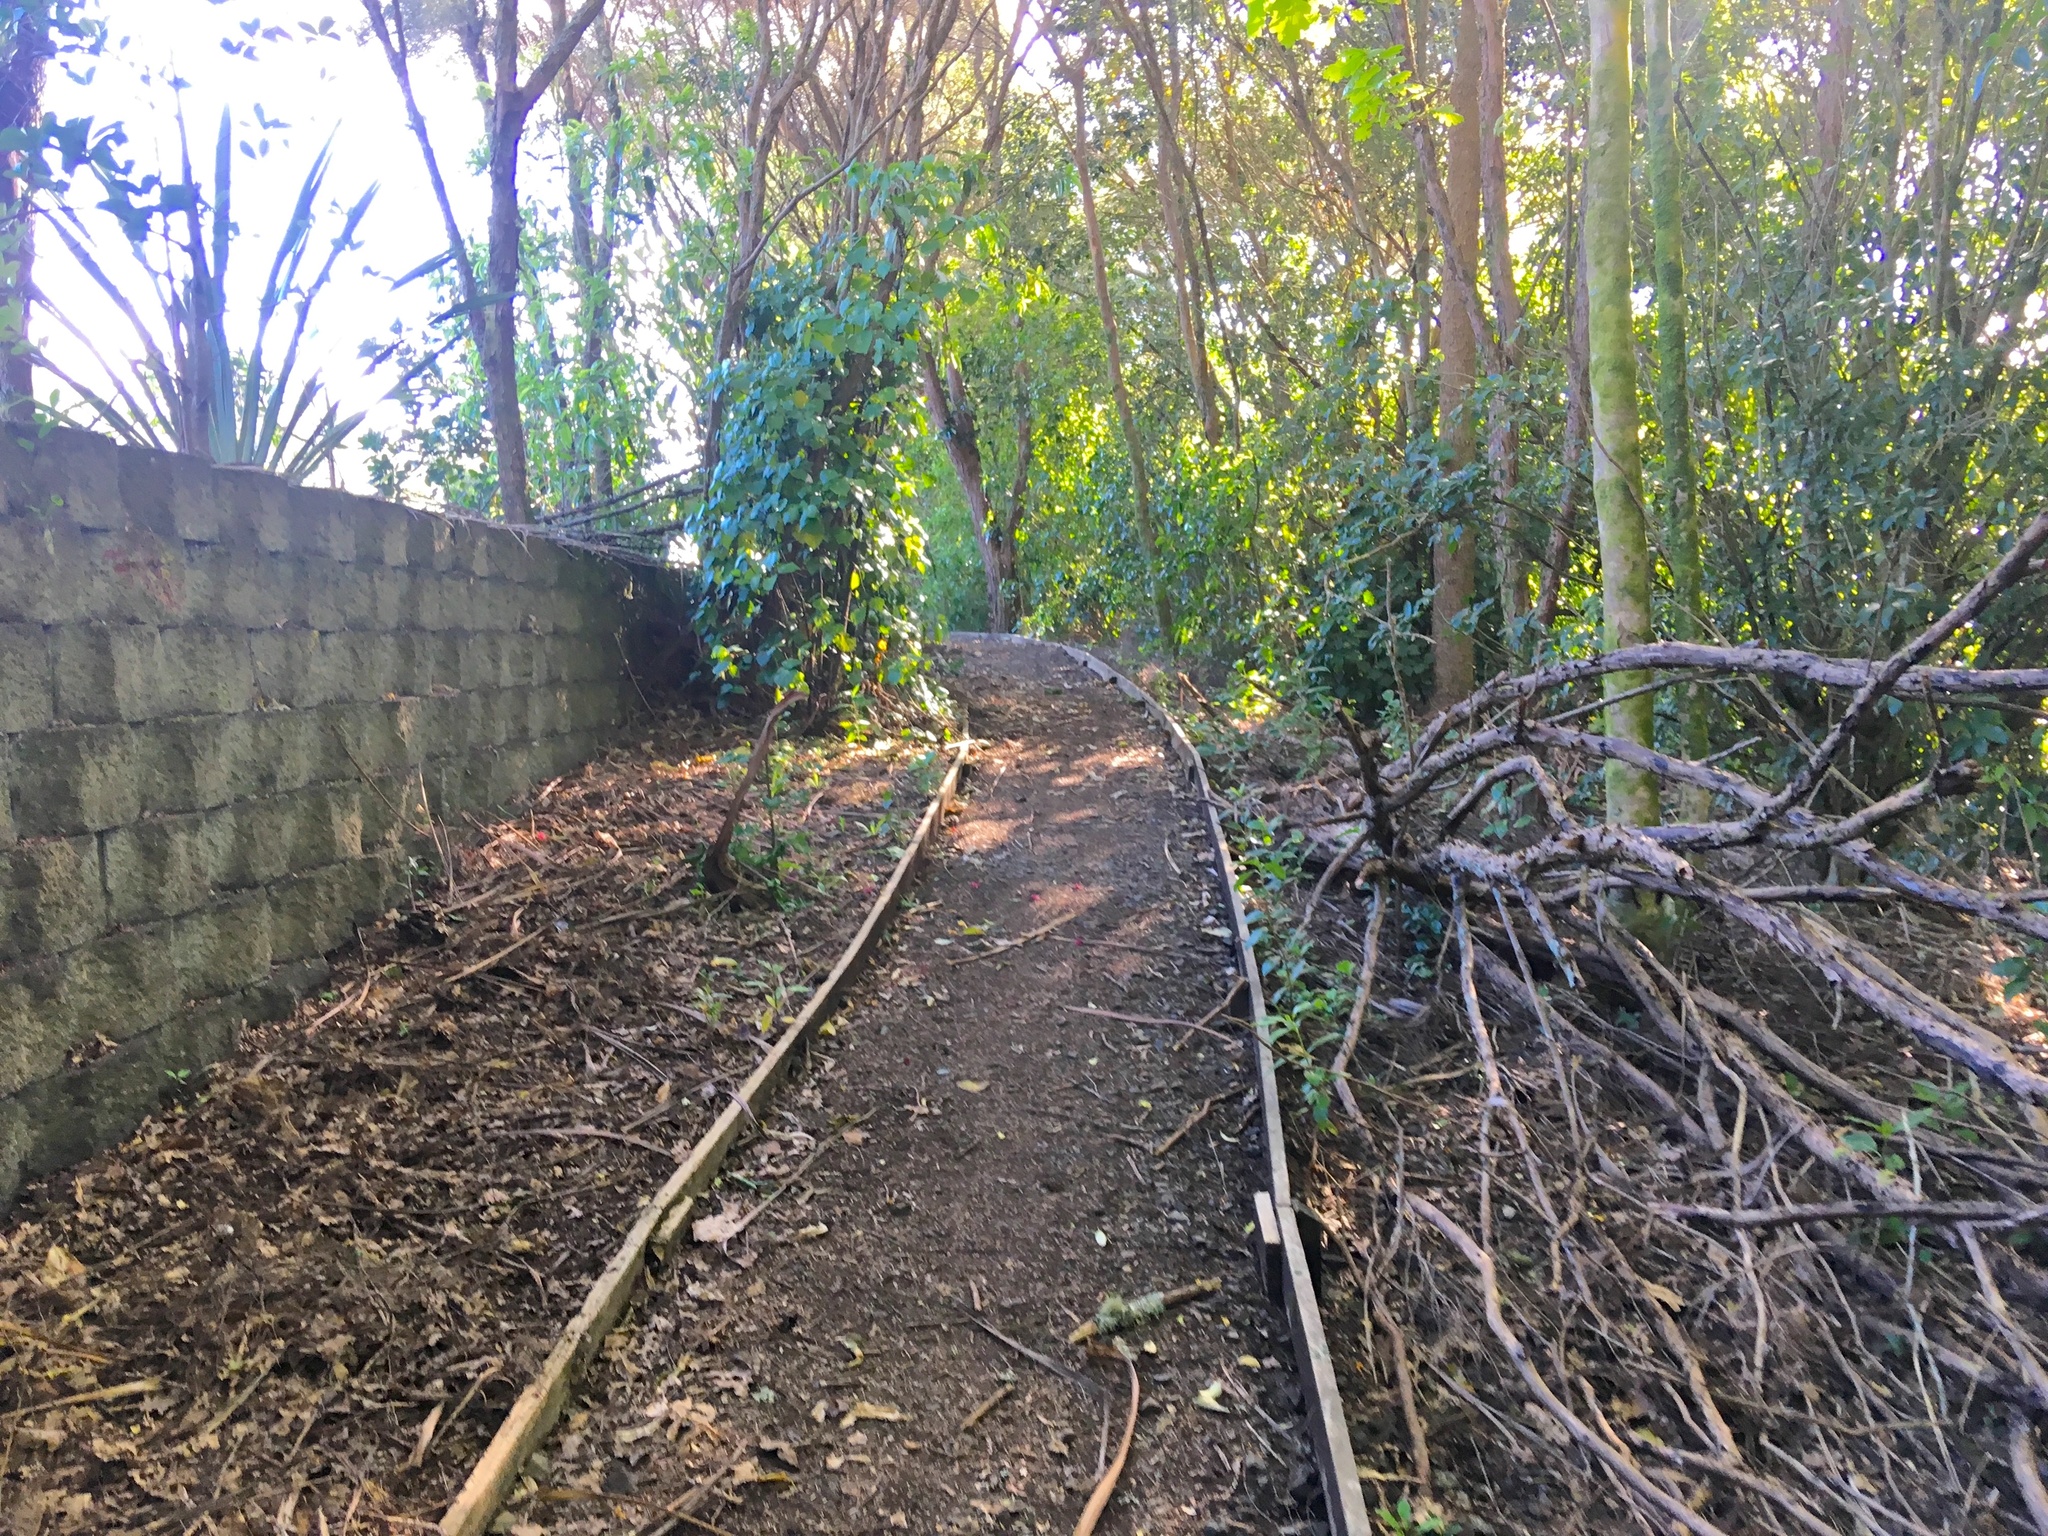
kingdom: Plantae
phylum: Tracheophyta
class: Liliopsida
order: Asparagales
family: Asphodelaceae
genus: Phormium
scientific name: Phormium tenax
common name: New zealand flax
